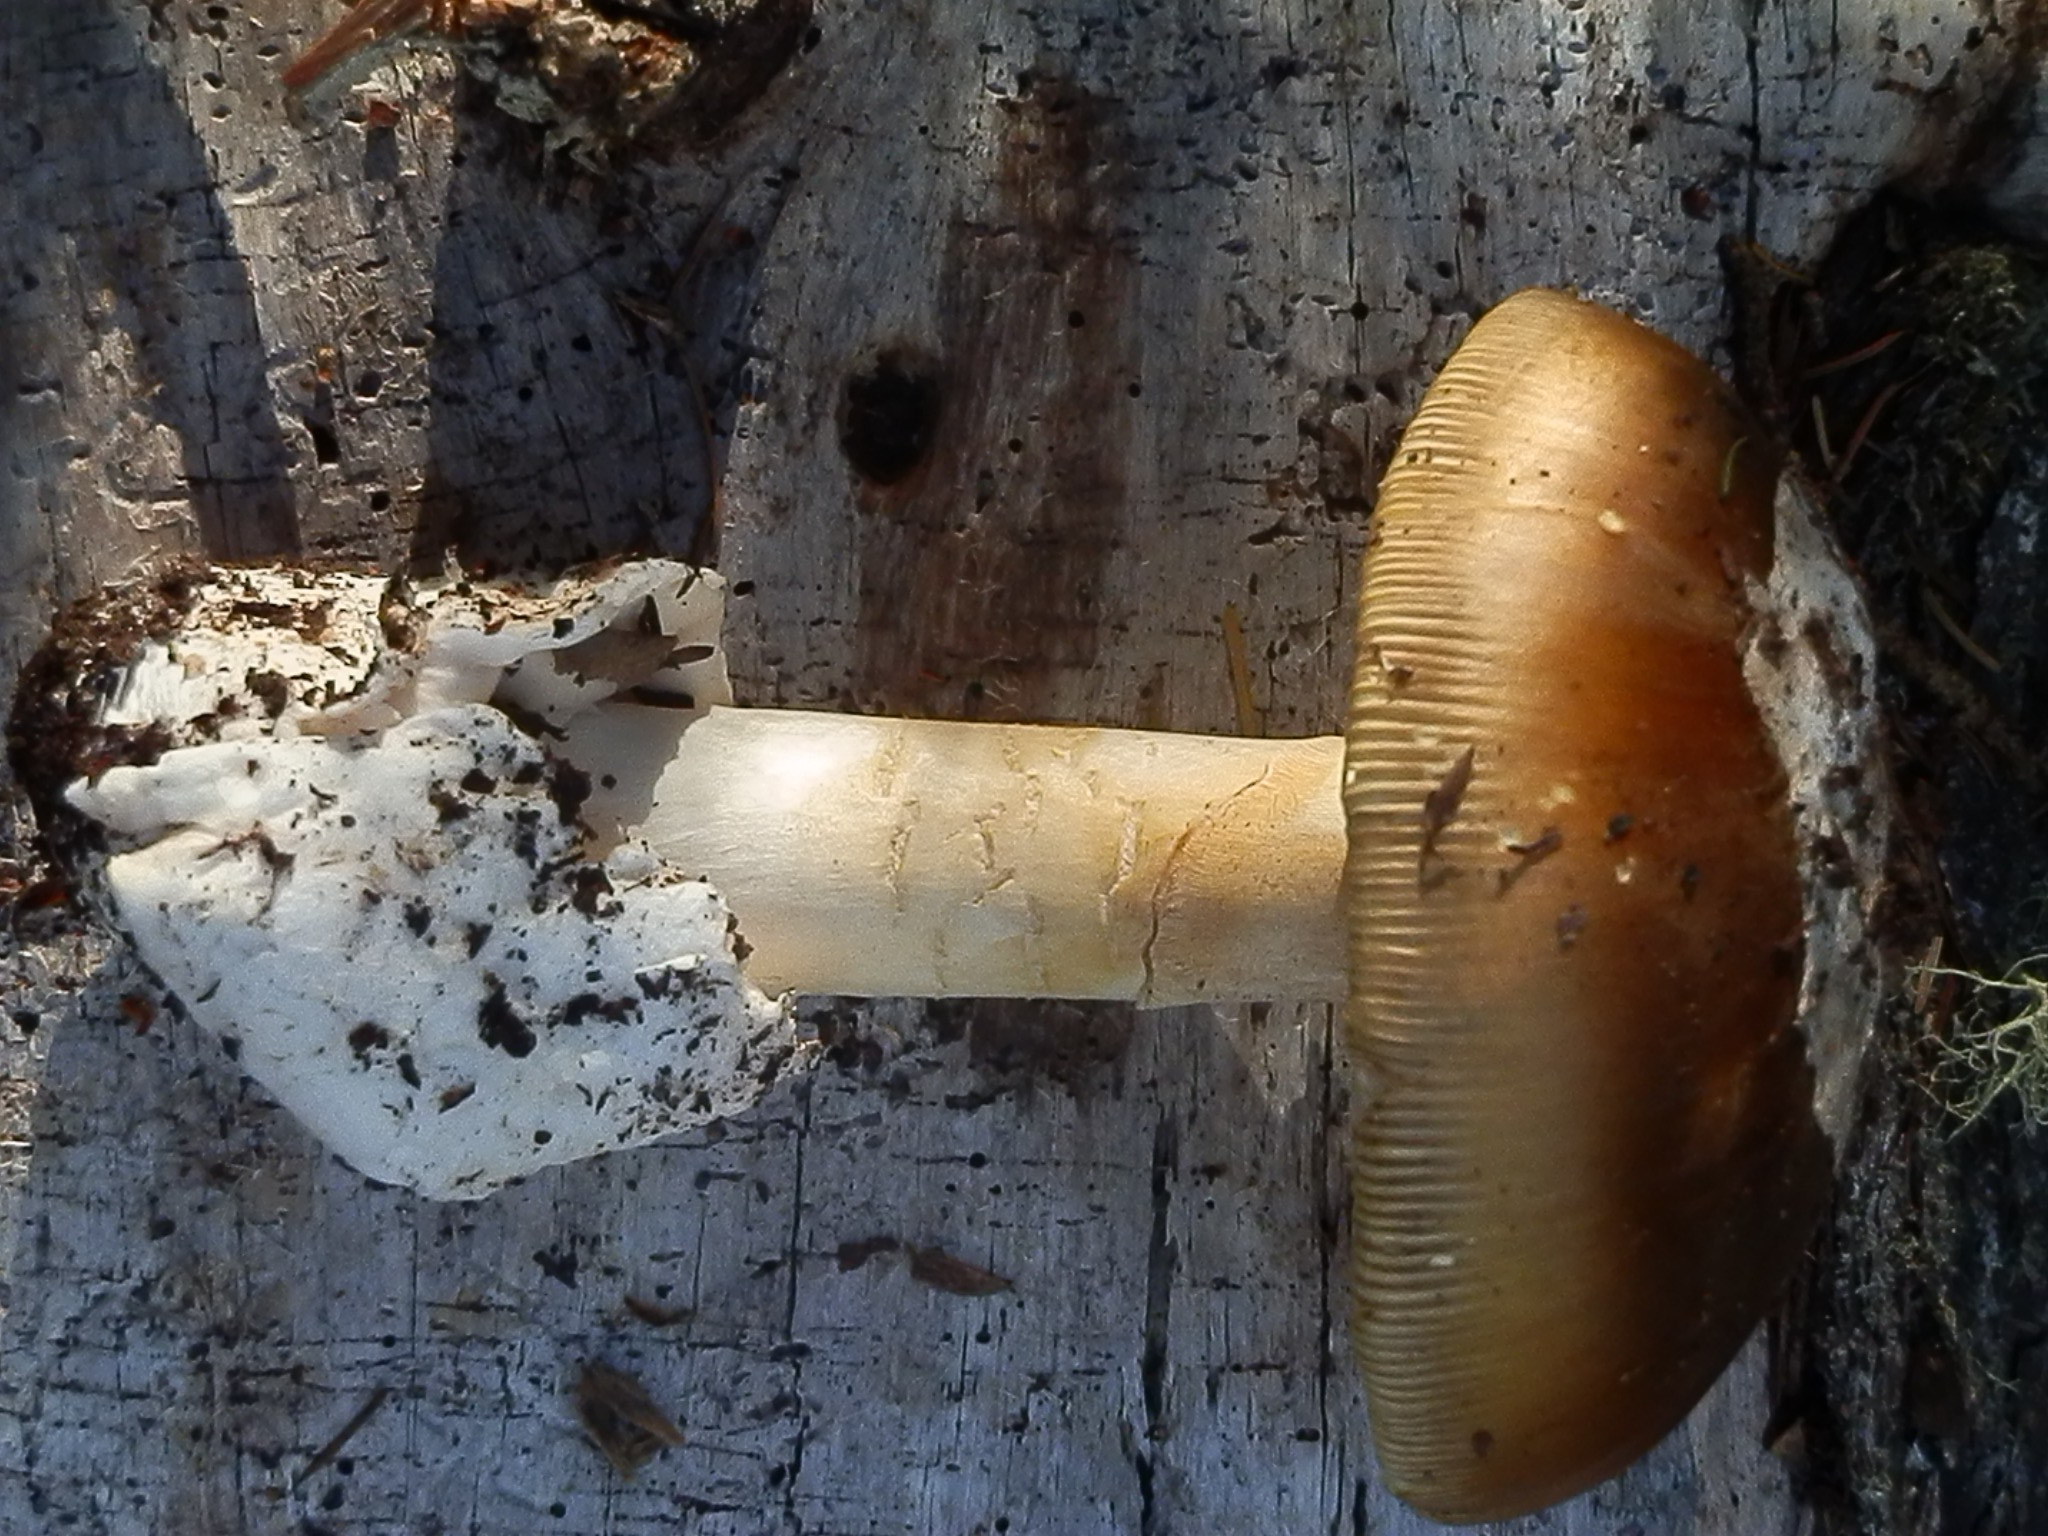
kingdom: Fungi
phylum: Basidiomycota
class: Agaricomycetes
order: Agaricales
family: Amanitaceae
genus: Amanita
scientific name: Amanita calyptroderma
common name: Coccora
